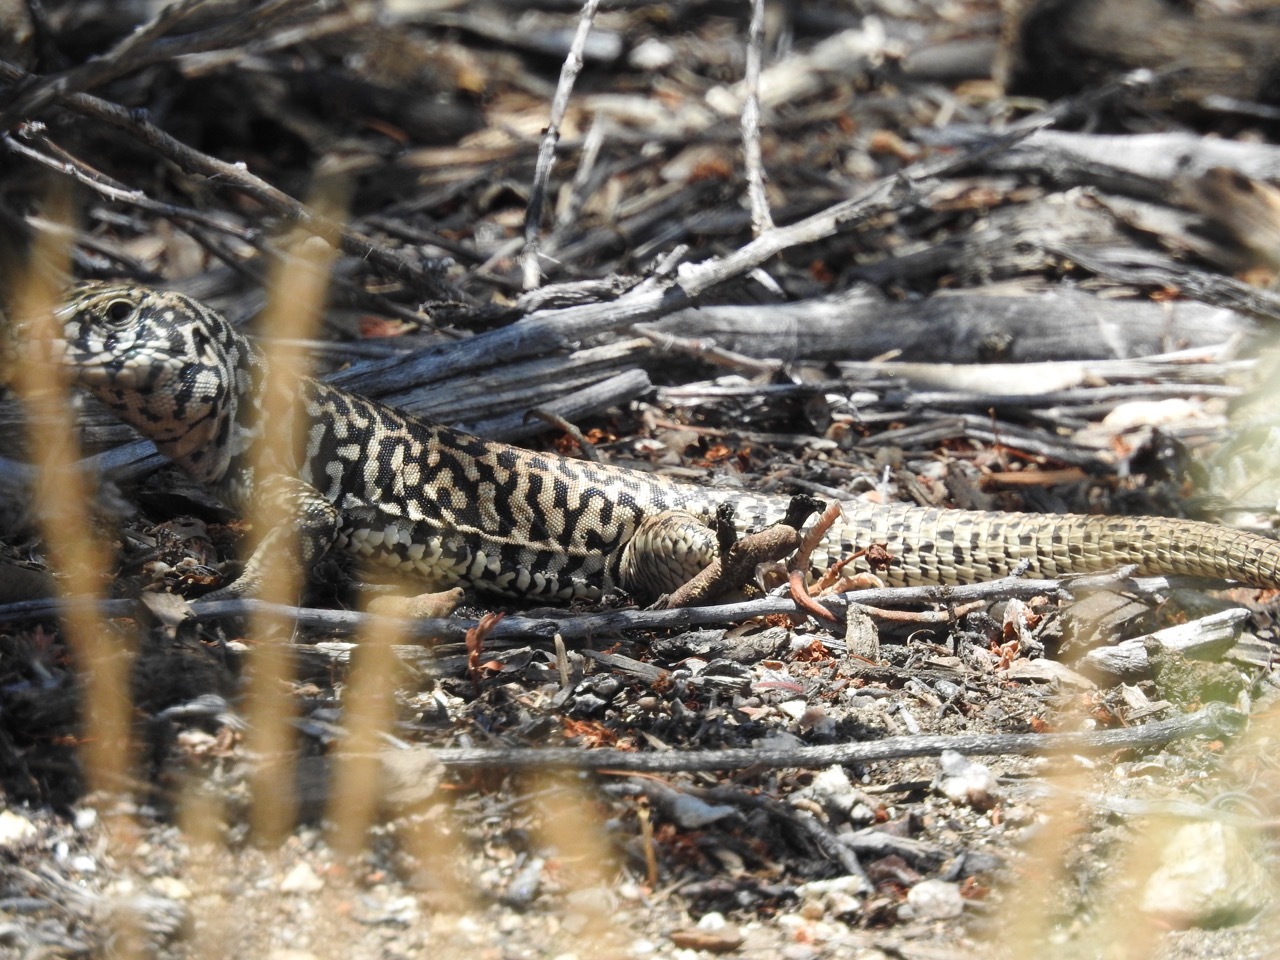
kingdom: Animalia
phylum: Chordata
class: Squamata
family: Teiidae
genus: Aspidoscelis
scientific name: Aspidoscelis tigris
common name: Tiger whiptail
